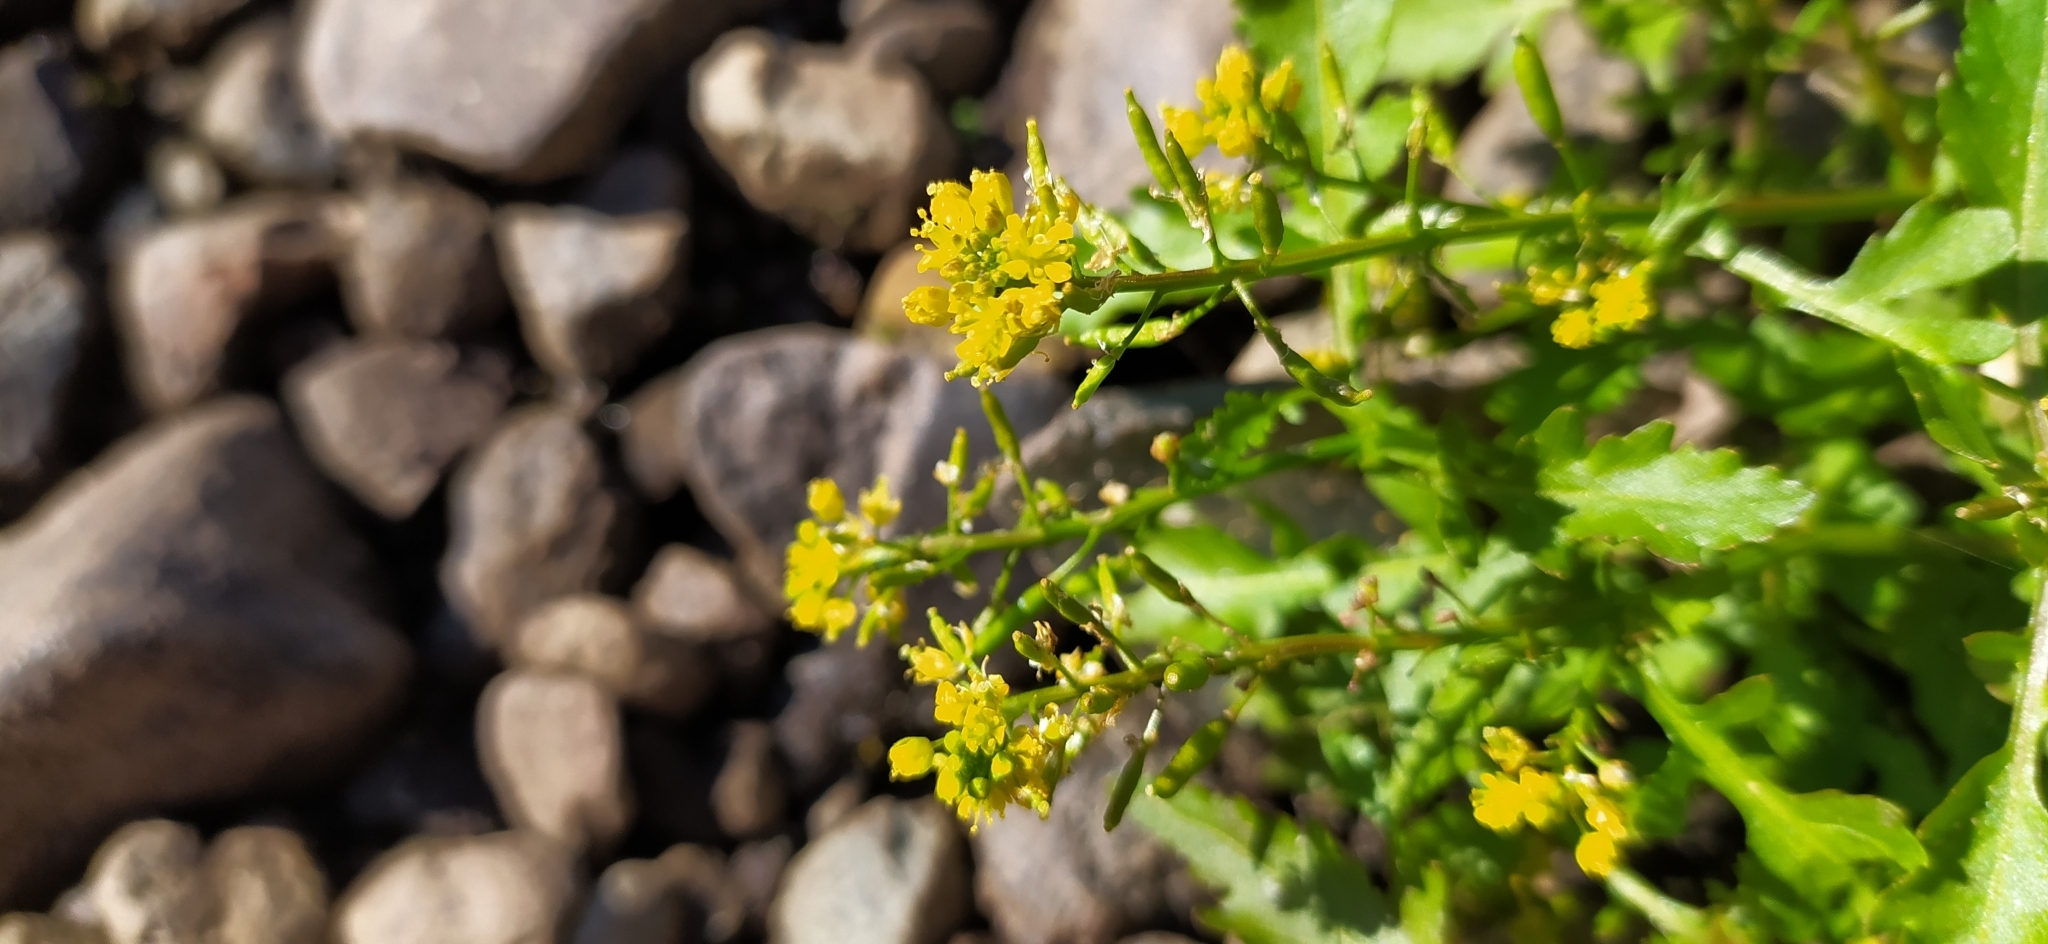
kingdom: Plantae
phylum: Tracheophyta
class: Magnoliopsida
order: Brassicales
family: Brassicaceae
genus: Rorippa
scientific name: Rorippa palustris
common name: Marsh yellow-cress
